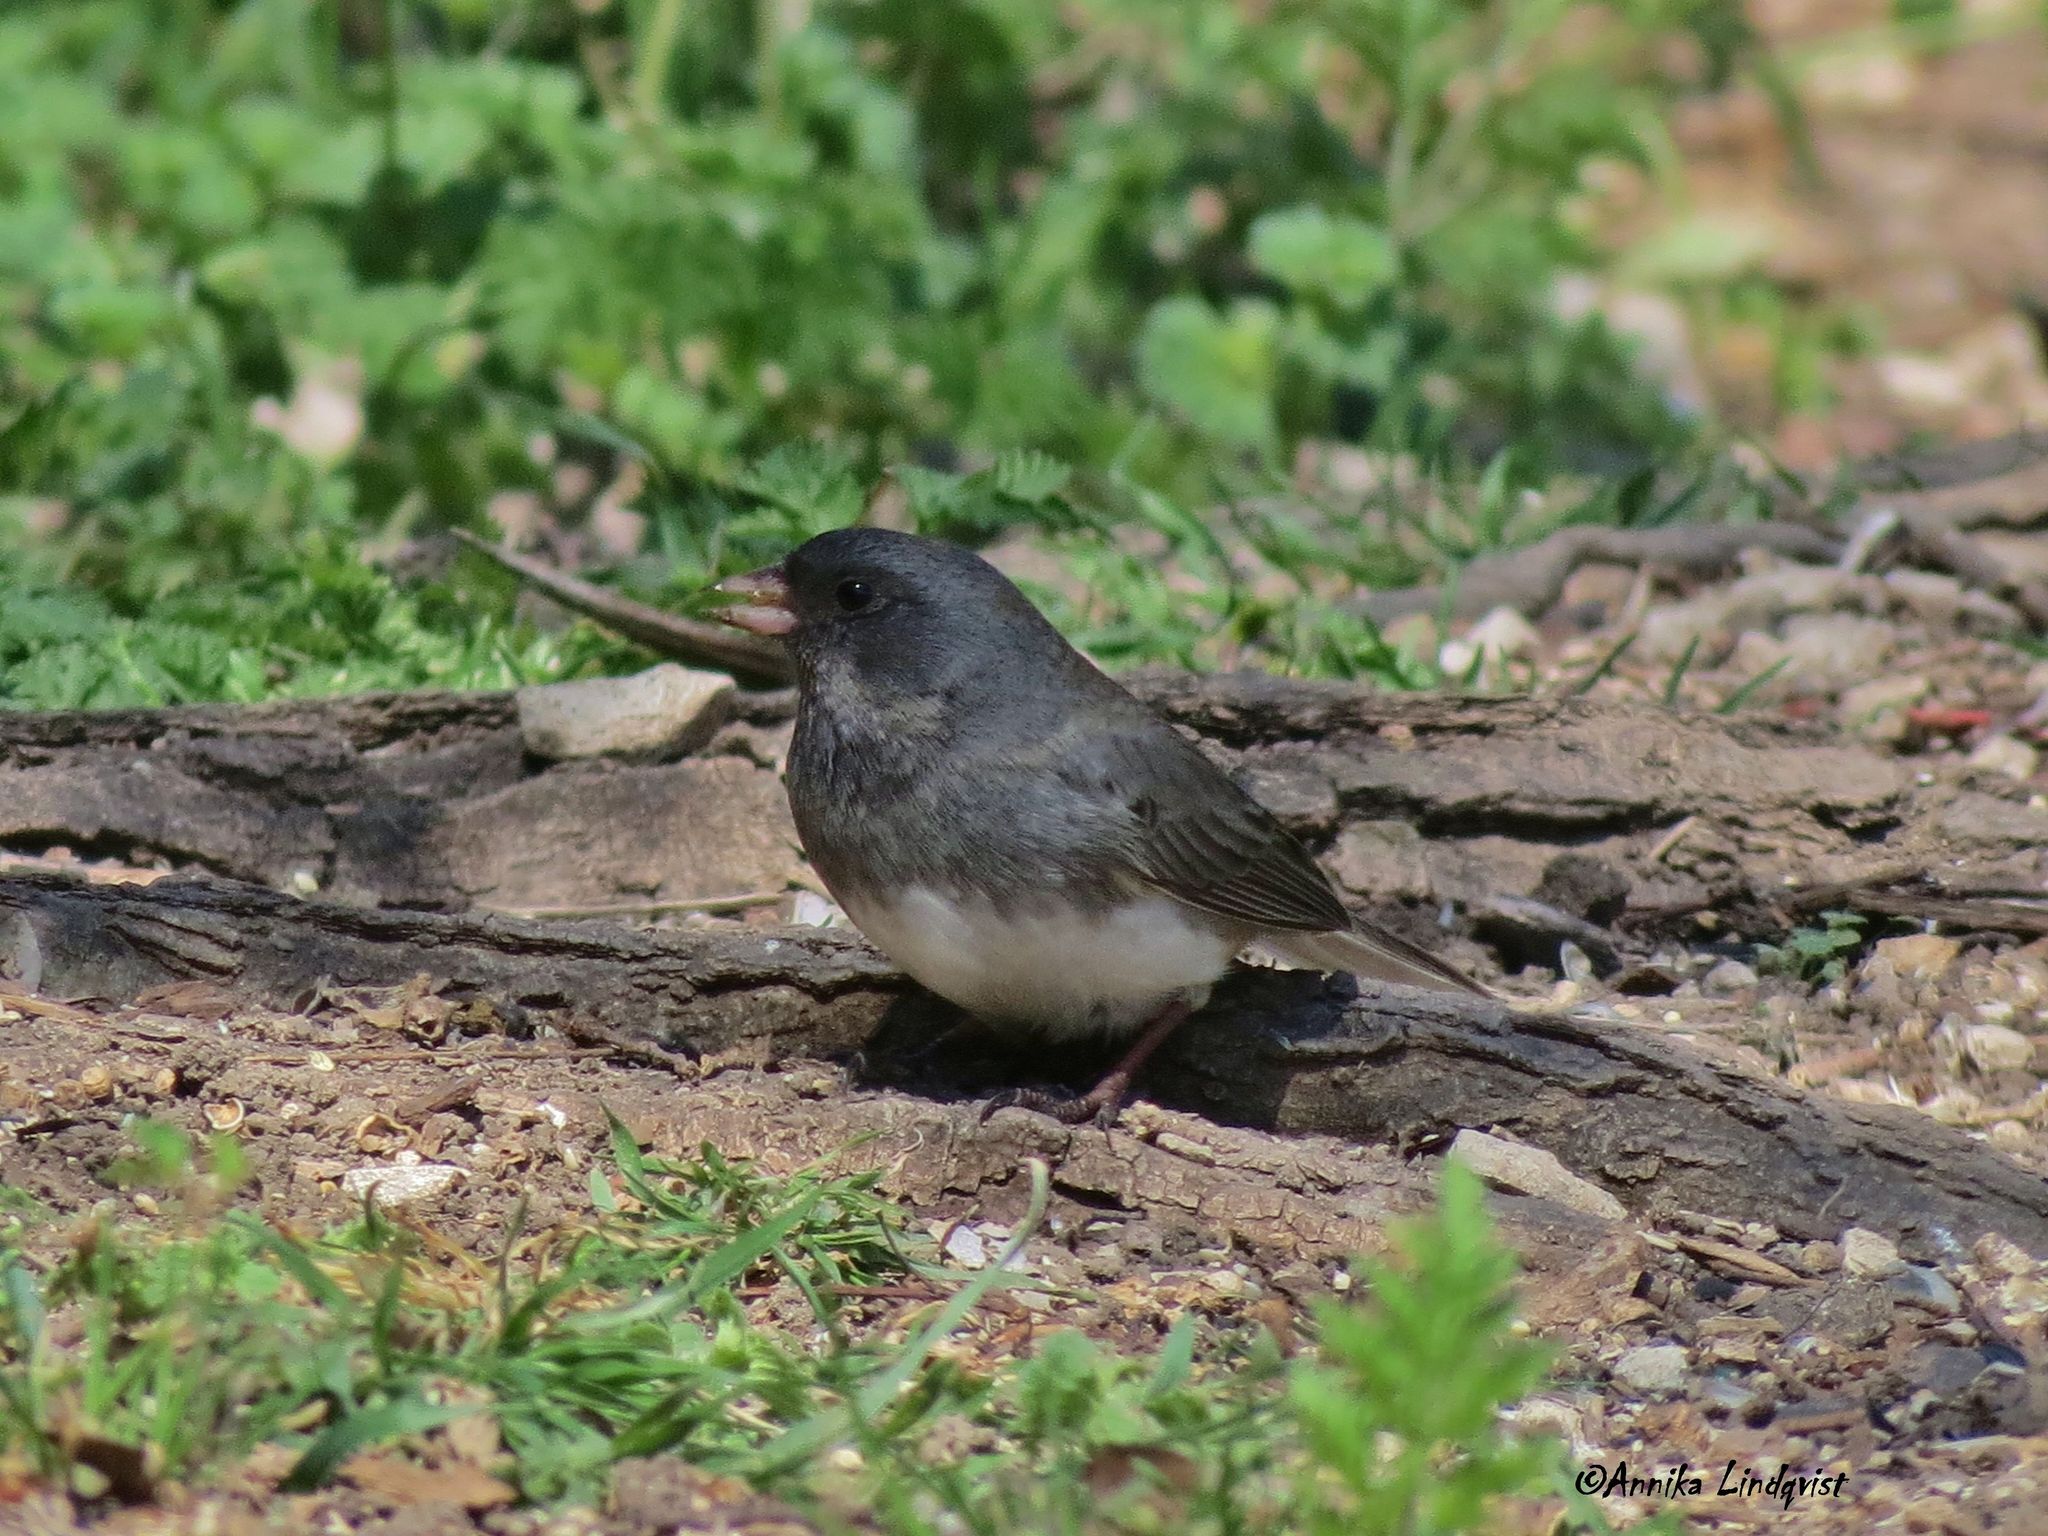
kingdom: Animalia
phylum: Chordata
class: Aves
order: Passeriformes
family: Passerellidae
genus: Junco
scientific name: Junco hyemalis
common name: Dark-eyed junco
